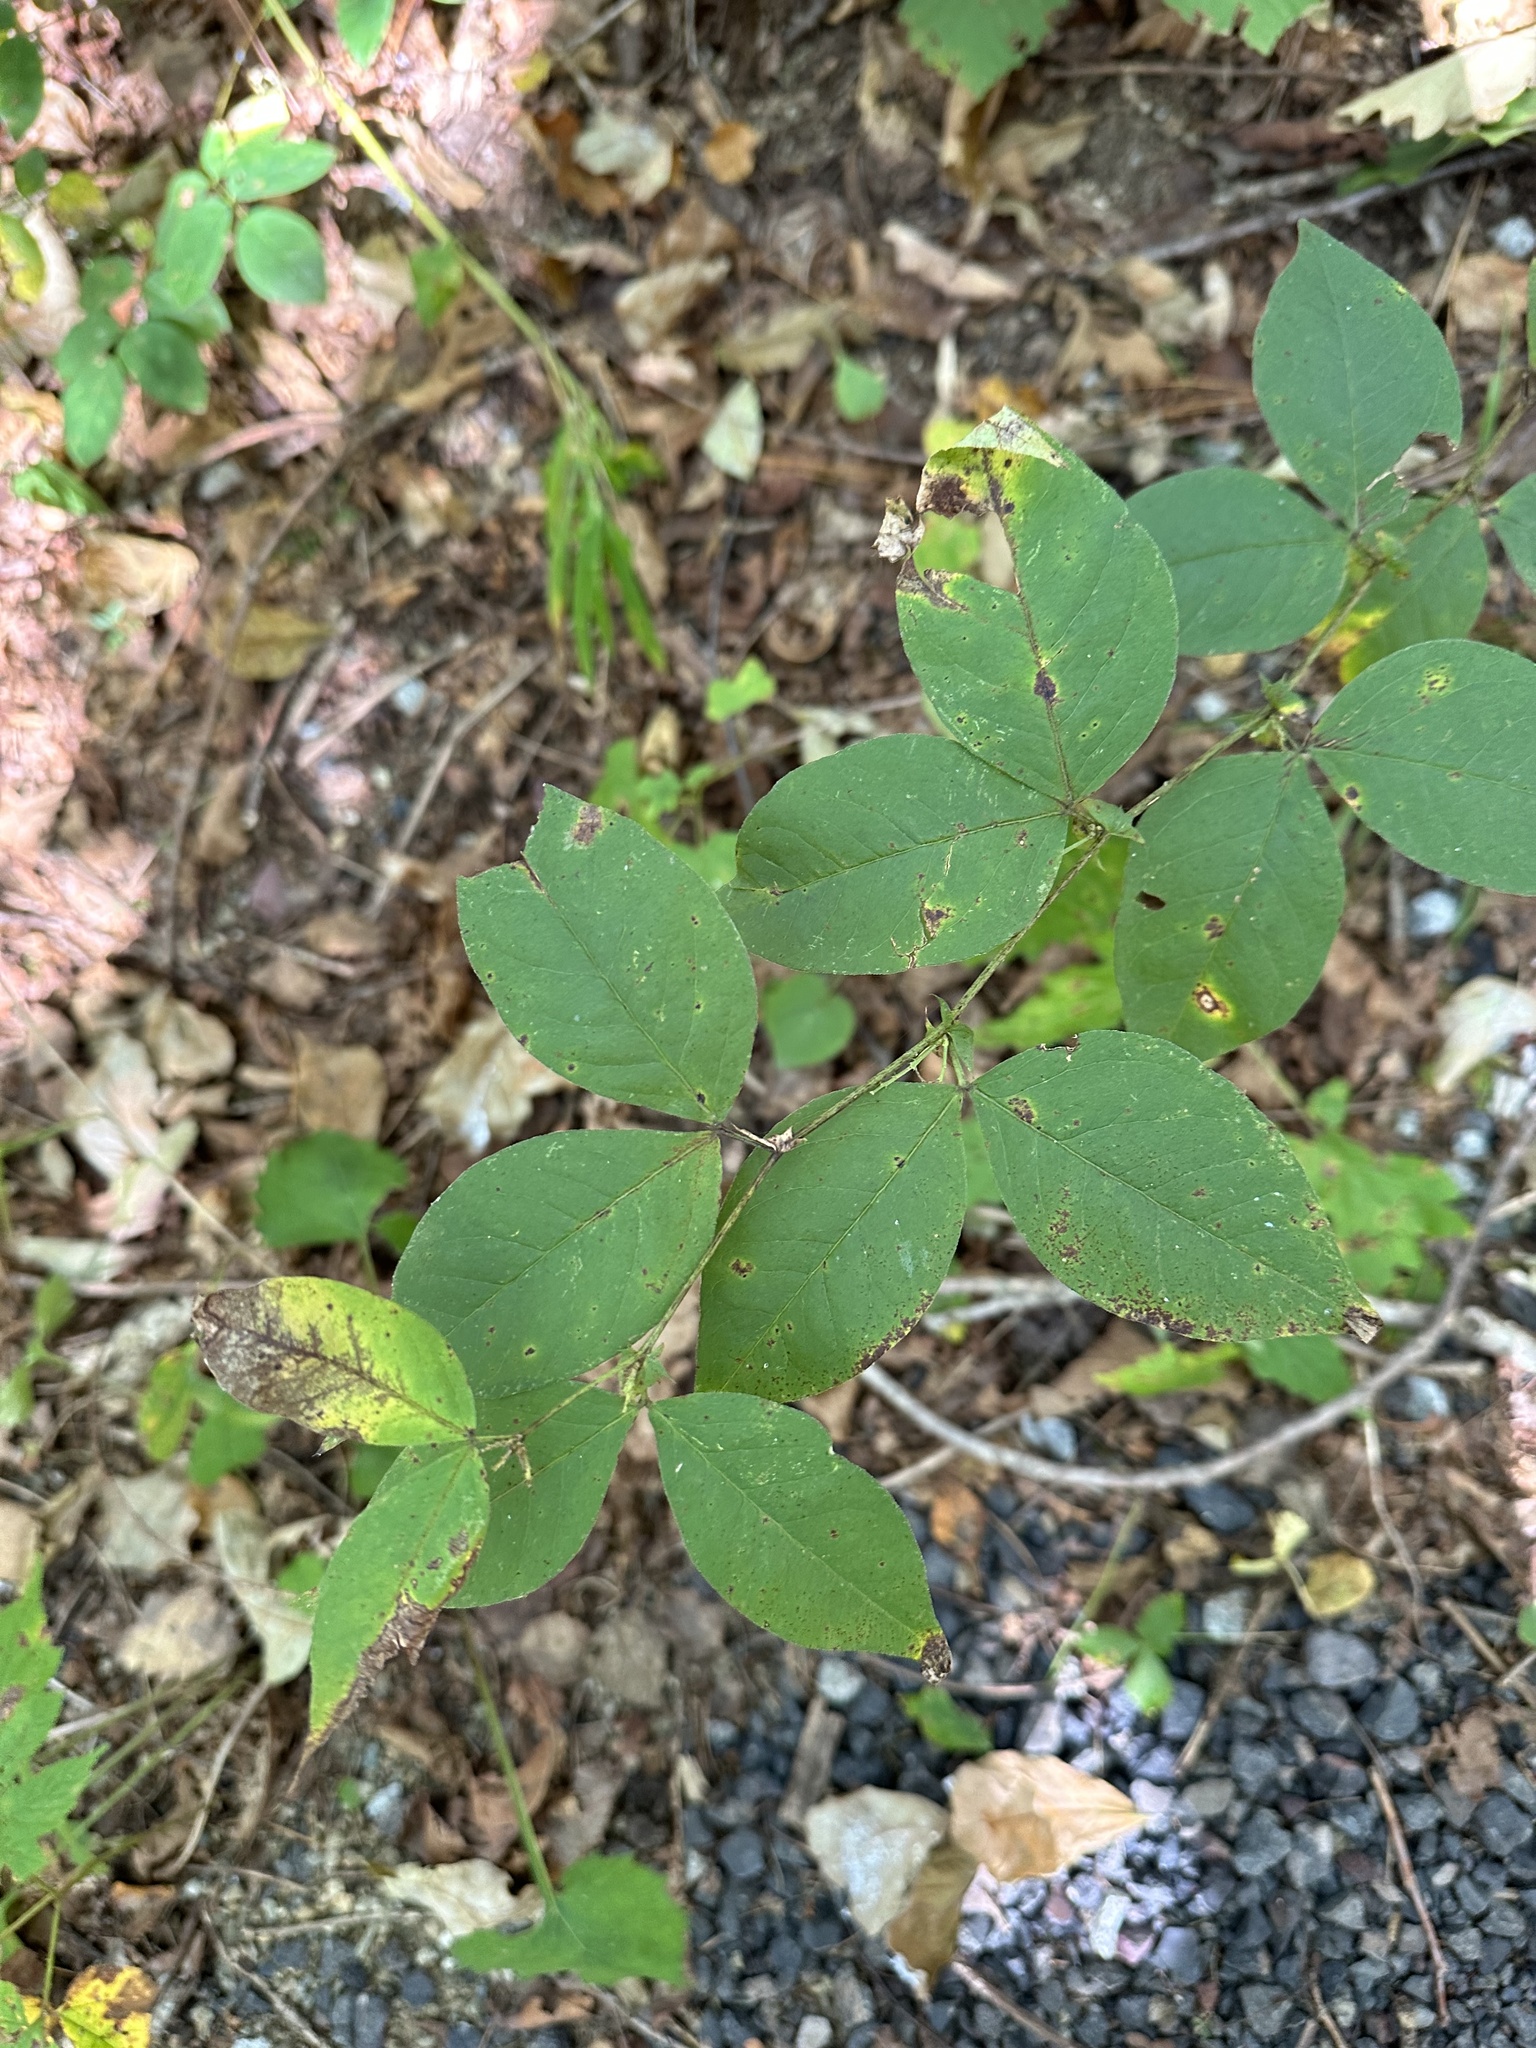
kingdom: Plantae
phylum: Tracheophyta
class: Magnoliopsida
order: Fabales
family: Fabaceae
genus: Vicia
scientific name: Vicia unijuga
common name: Two-leaf vetch
